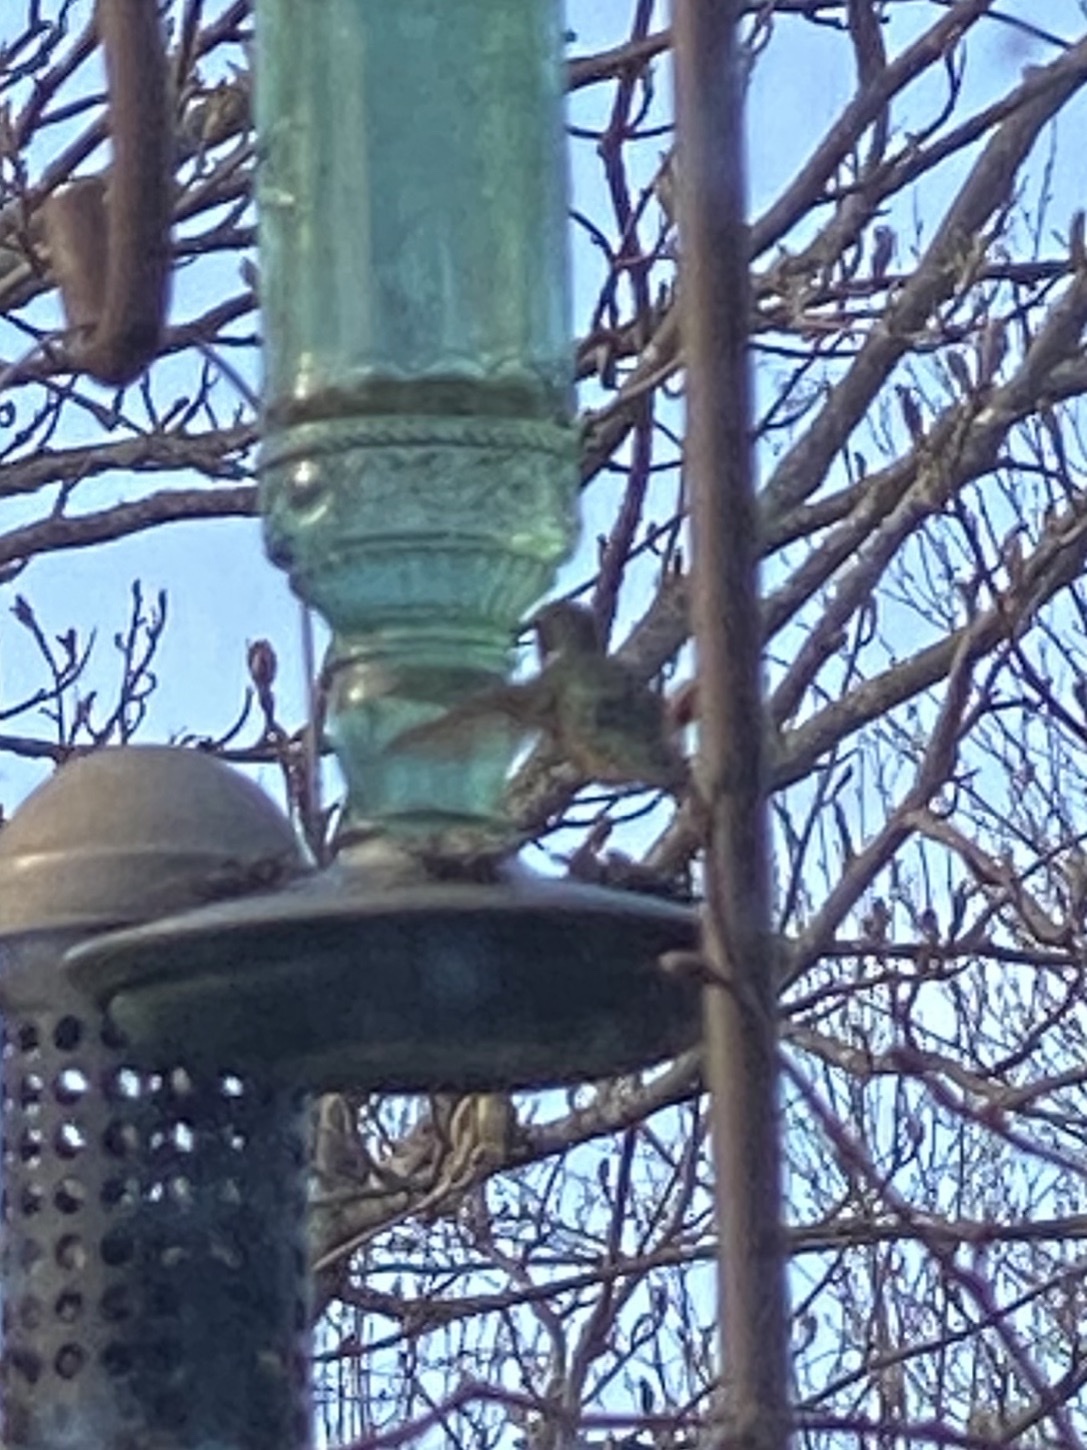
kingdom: Animalia
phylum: Chordata
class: Aves
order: Apodiformes
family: Trochilidae
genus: Archilochus
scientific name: Archilochus colubris
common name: Ruby-throated hummingbird
